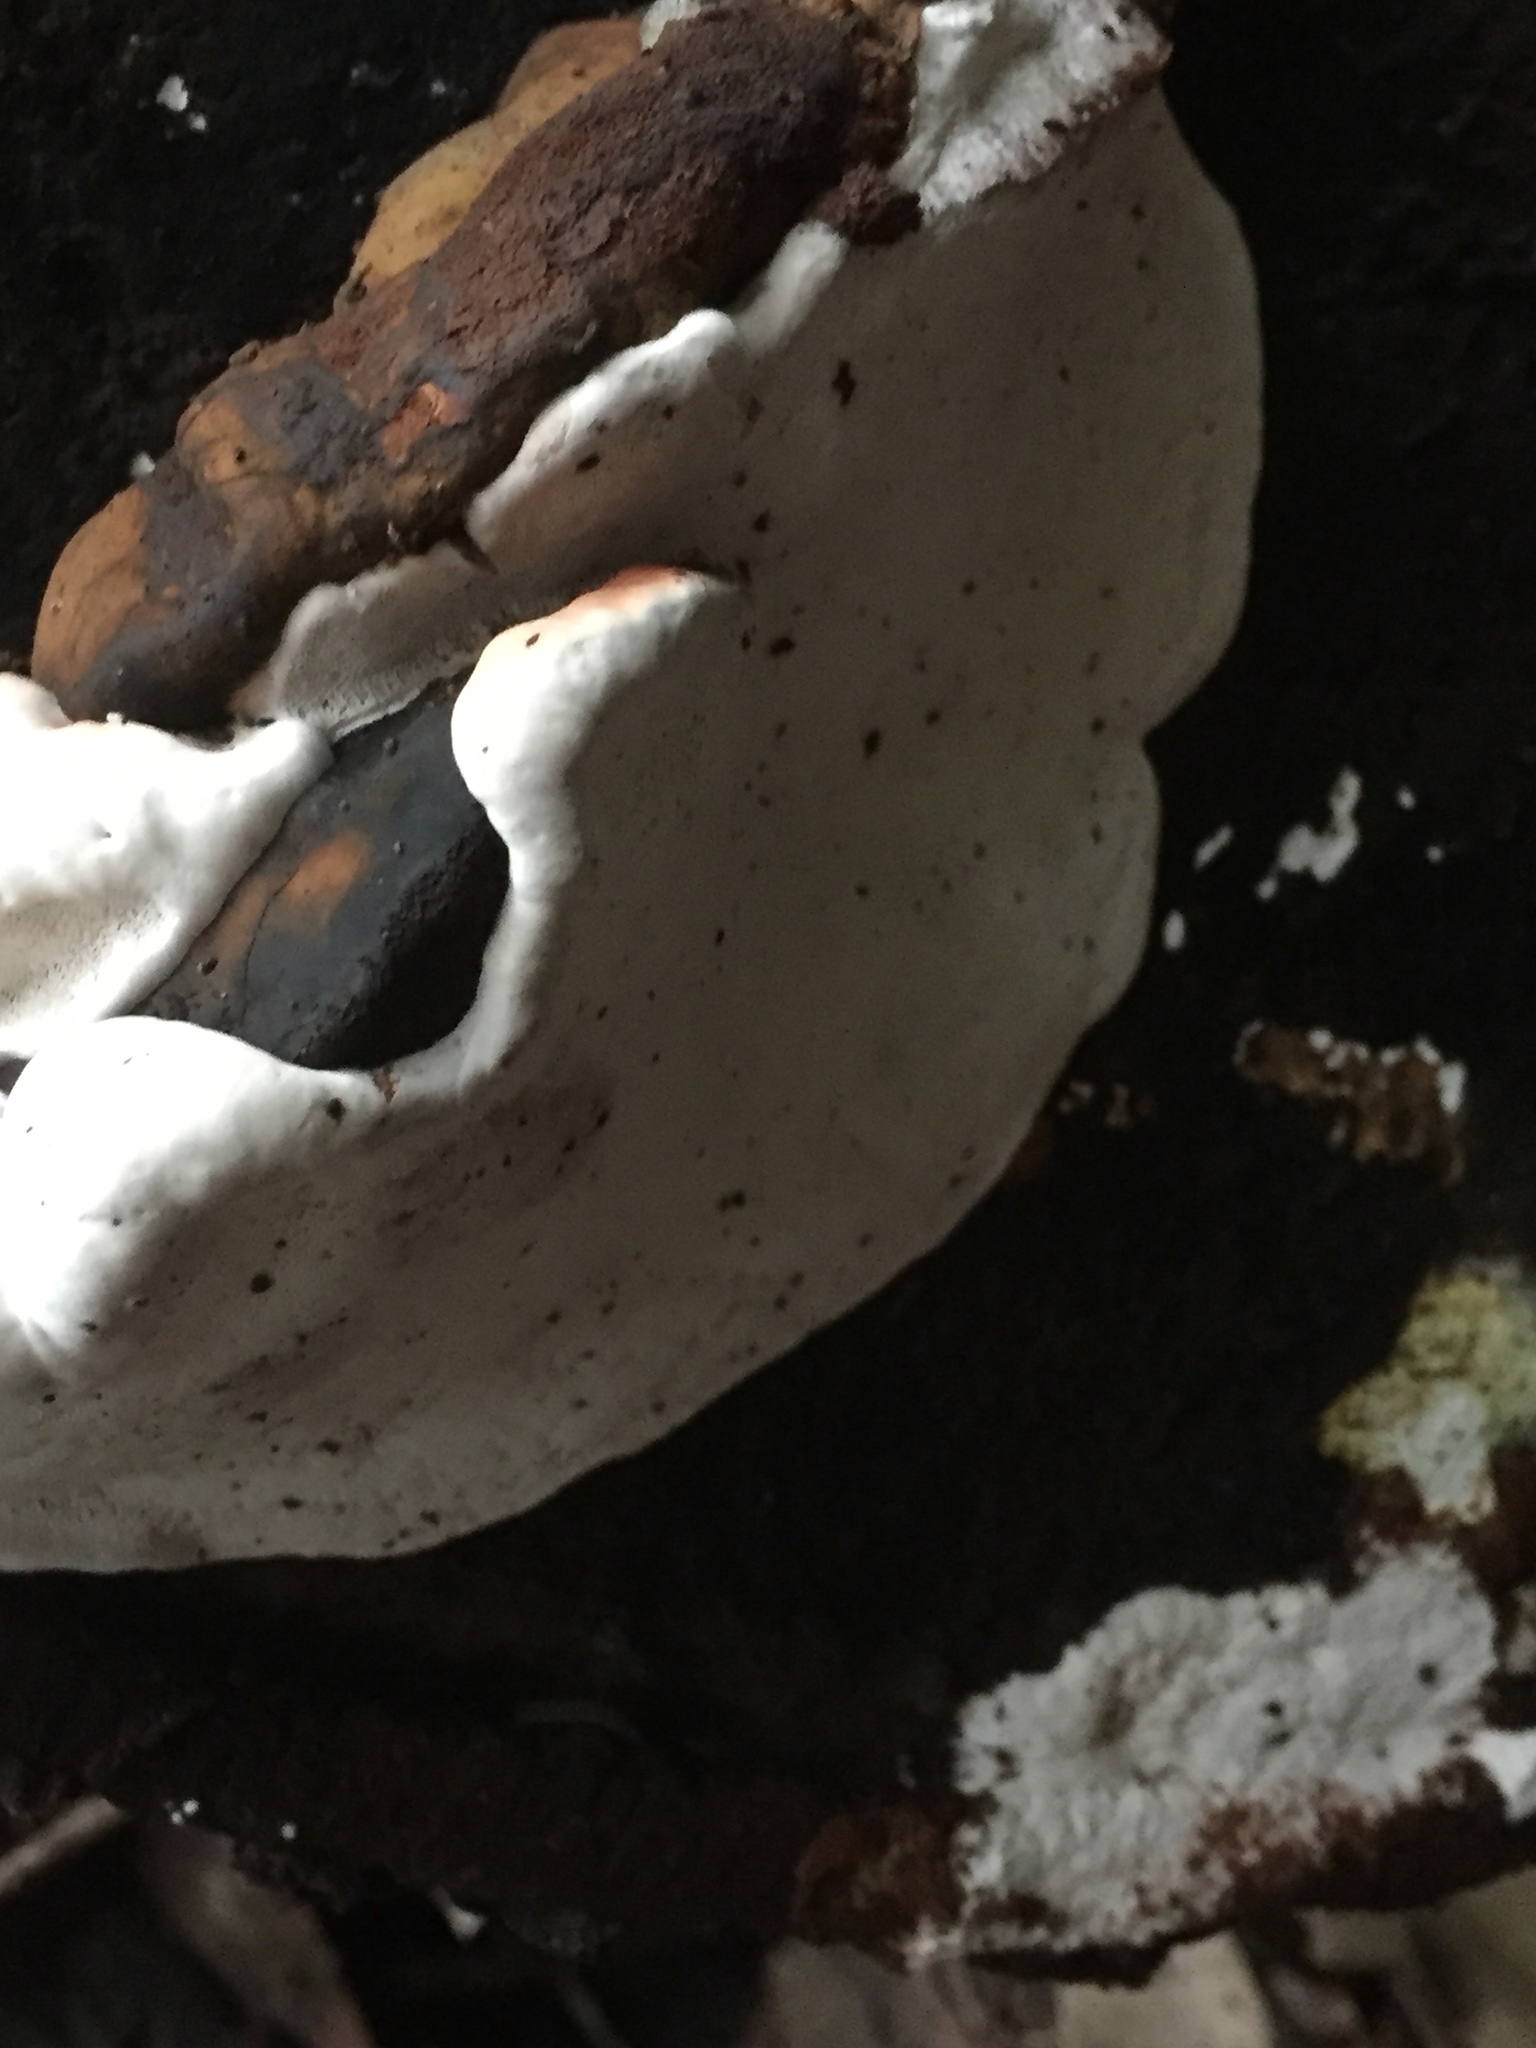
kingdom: Fungi
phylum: Basidiomycota
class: Agaricomycetes
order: Polyporales
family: Fomitopsidaceae
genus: Fomitopsis
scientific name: Fomitopsis pinicola
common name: Red-belted bracket
